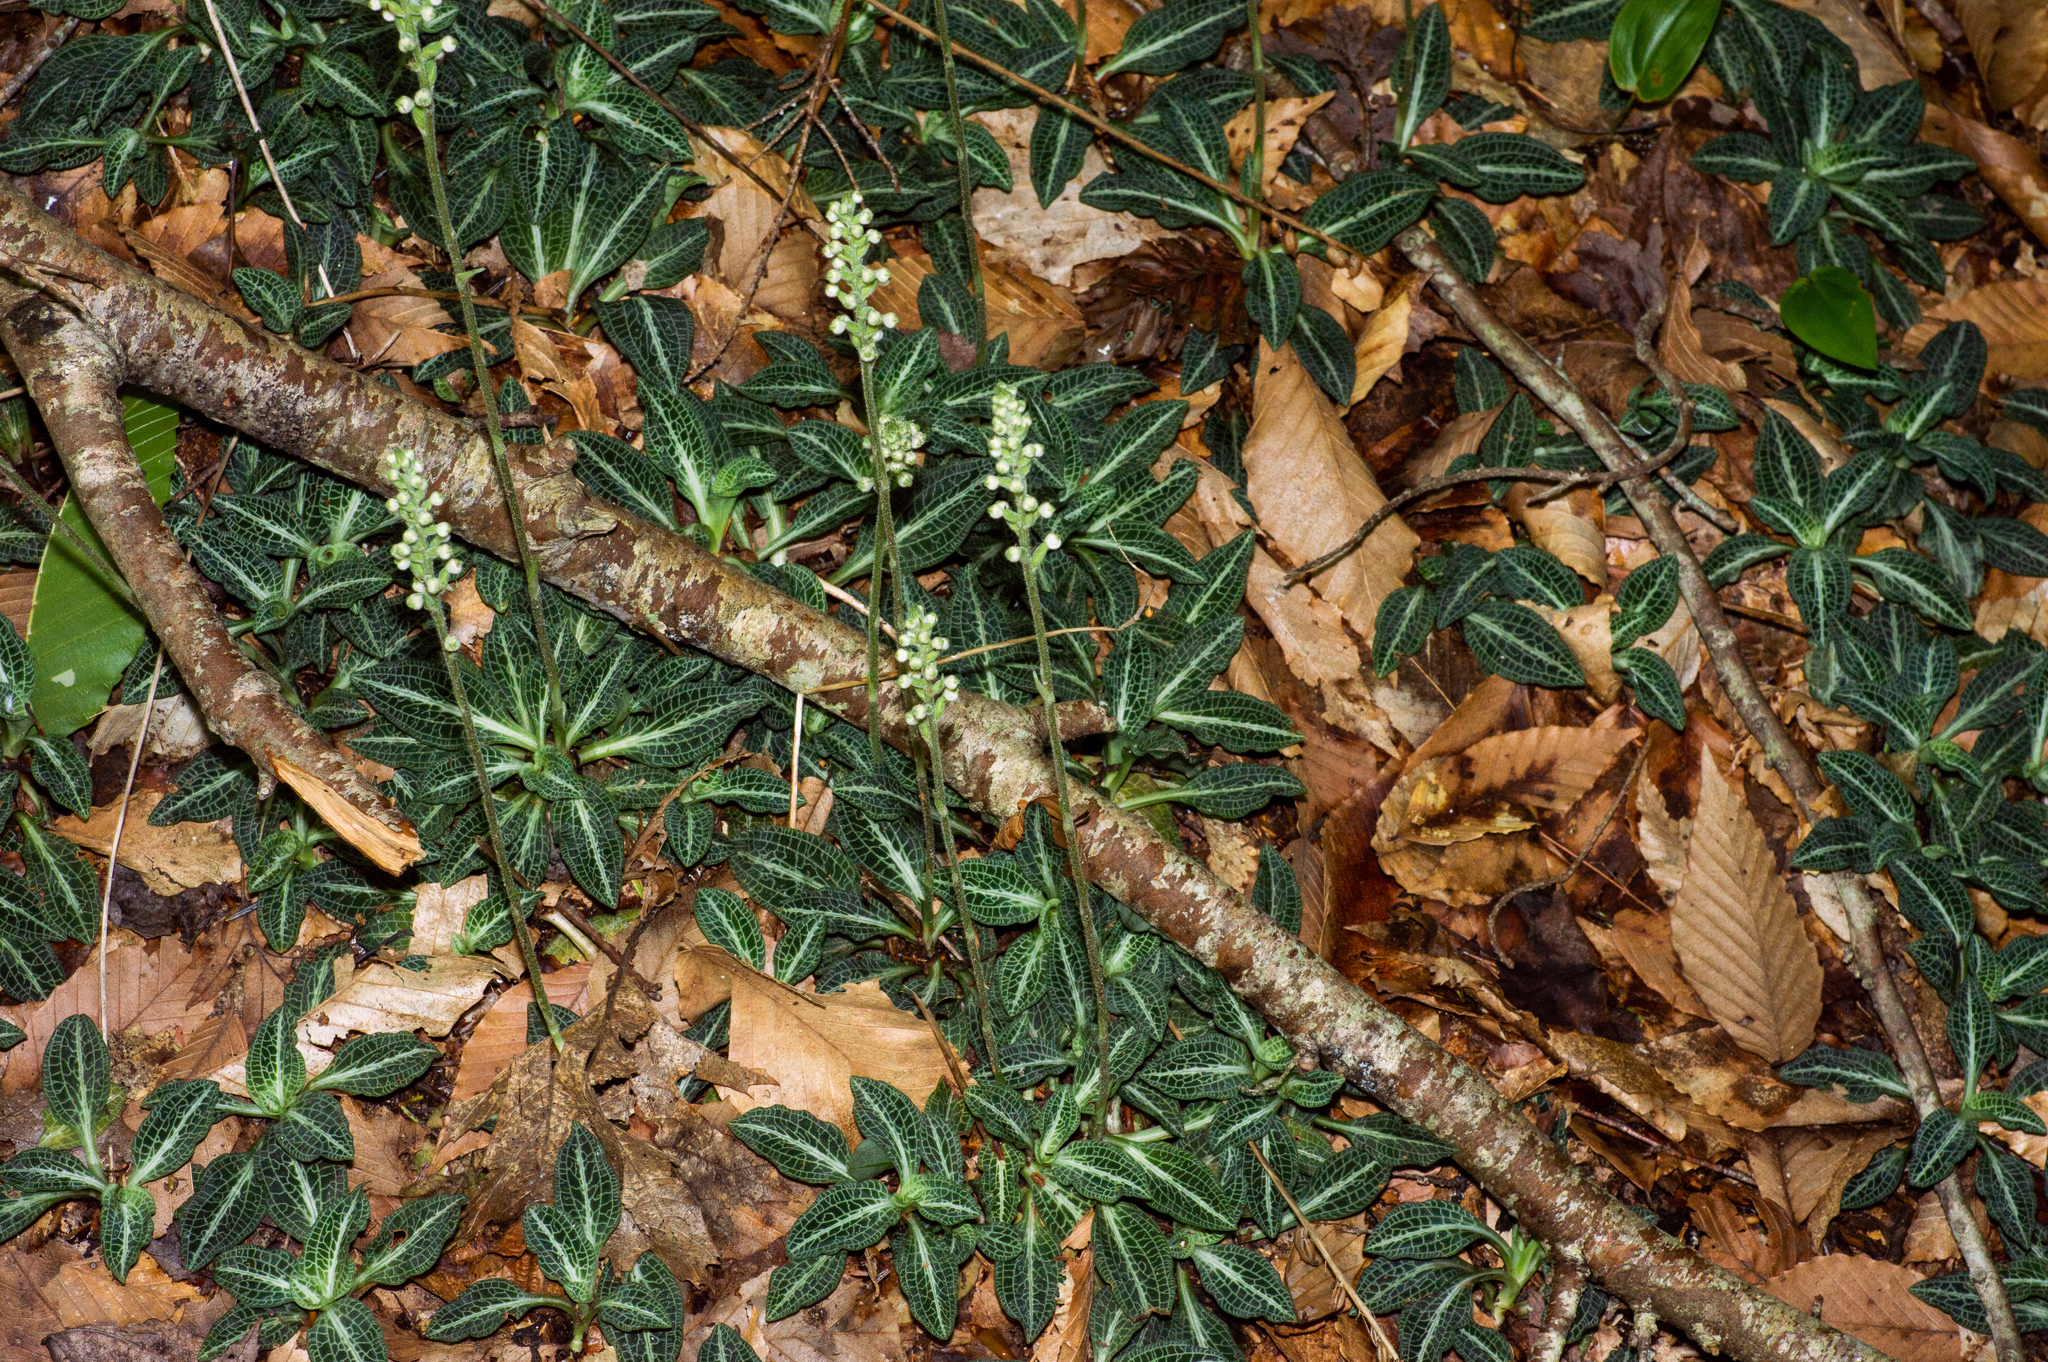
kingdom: Plantae
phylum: Tracheophyta
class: Liliopsida
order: Asparagales
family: Orchidaceae
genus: Goodyera
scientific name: Goodyera pubescens
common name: Downy rattlesnake-plantain
